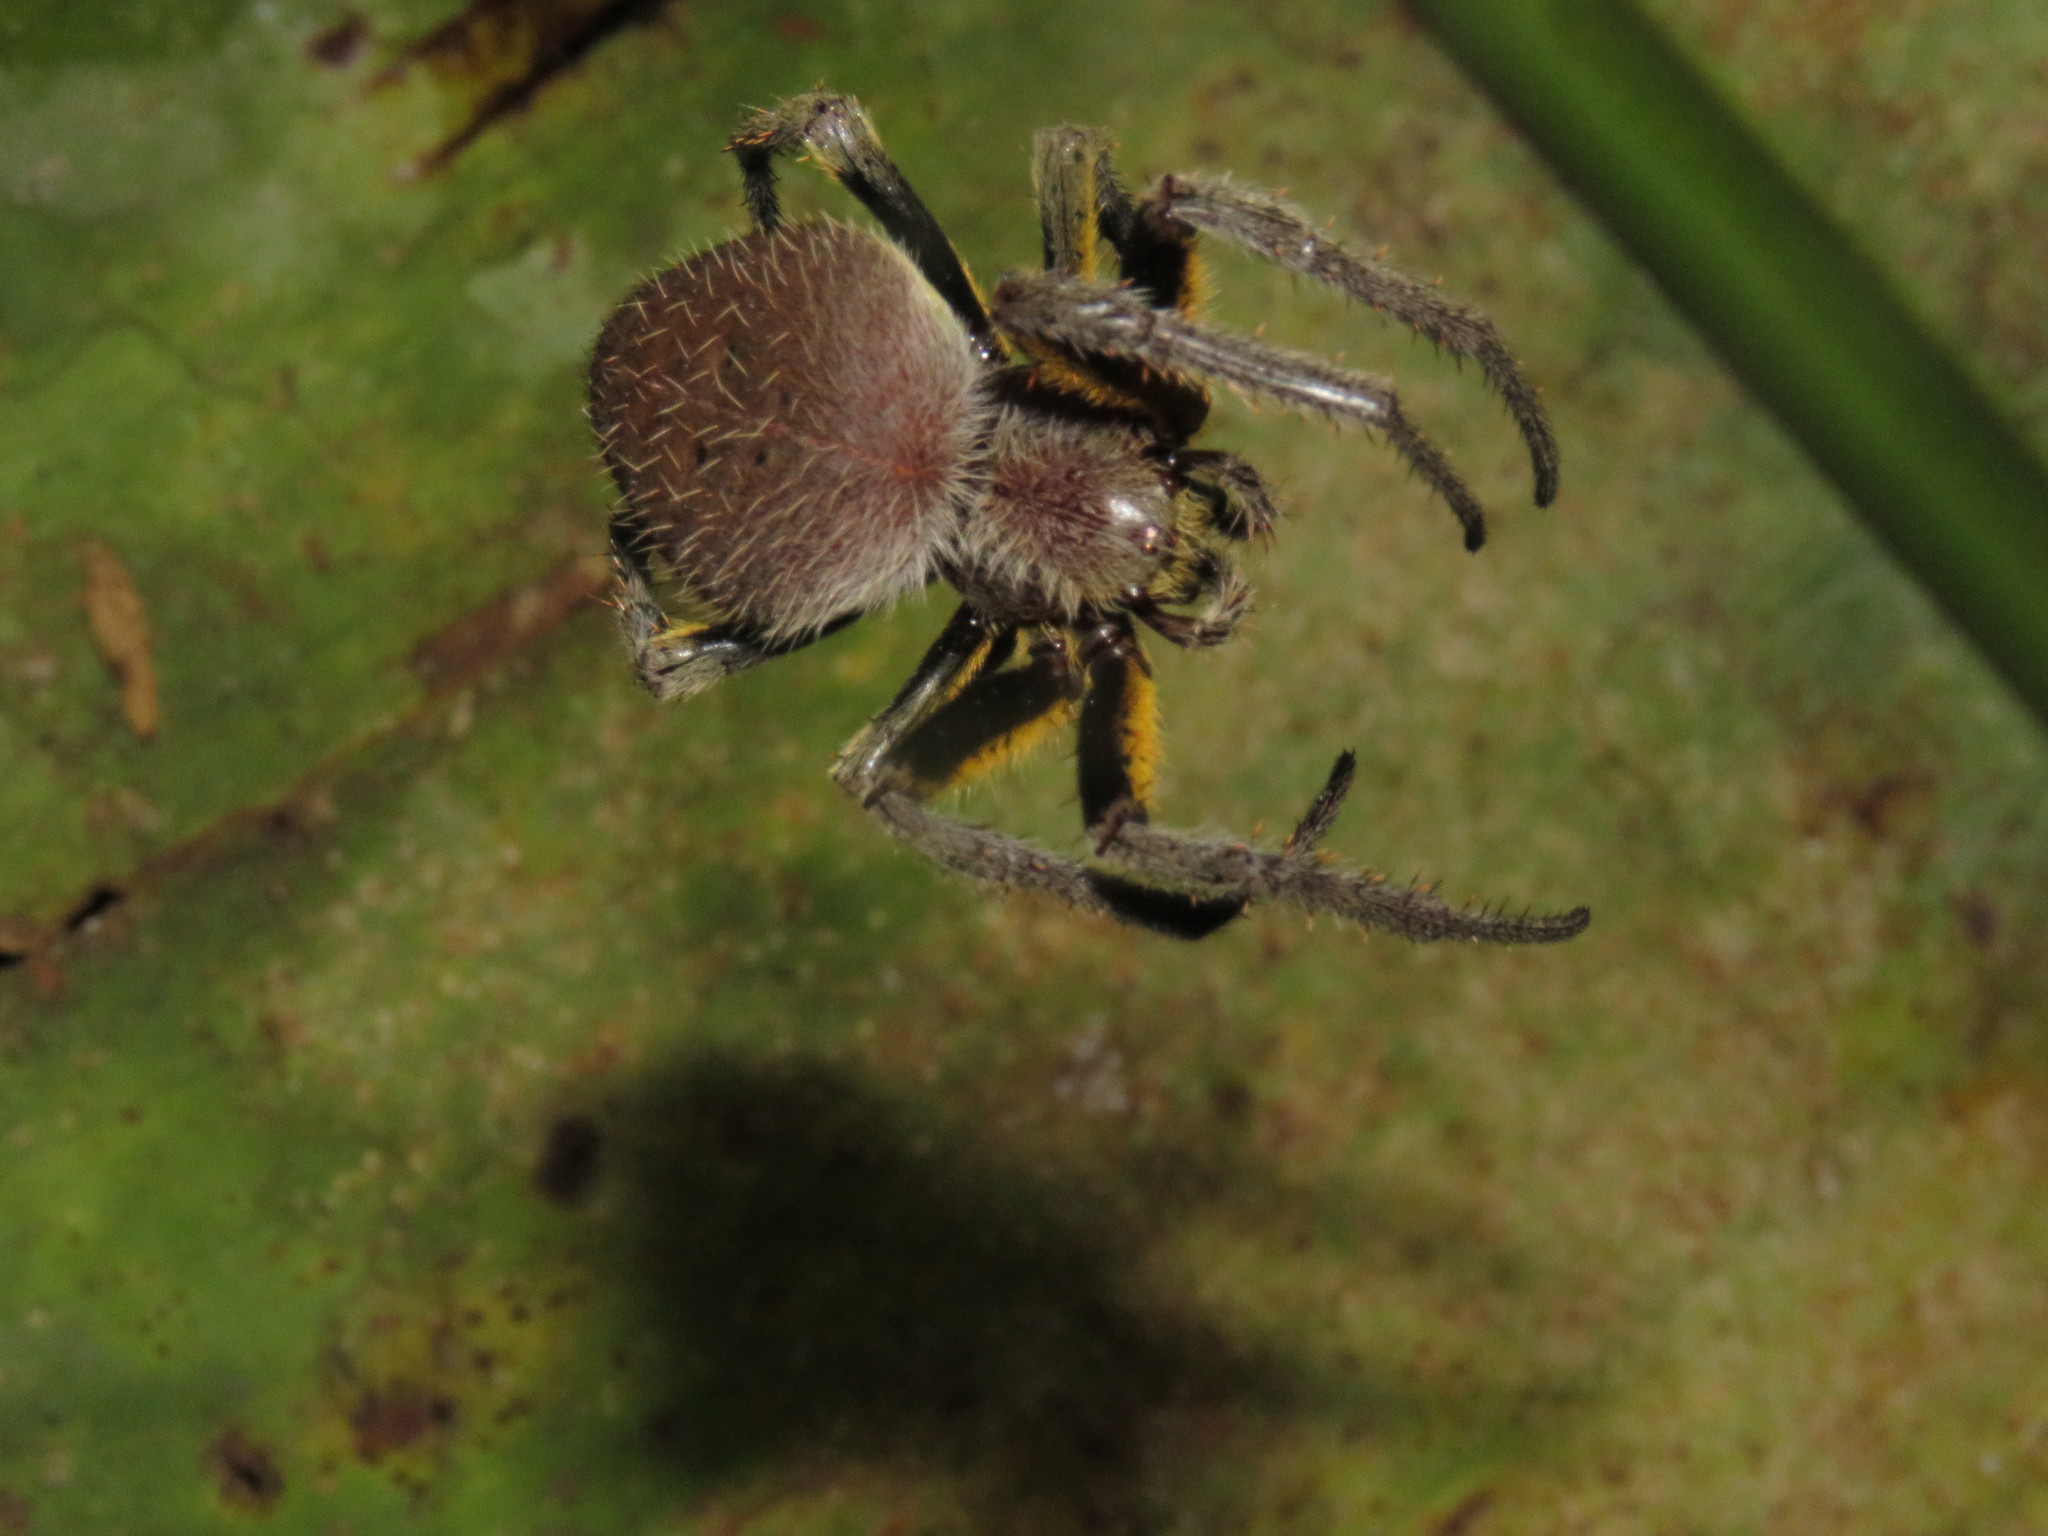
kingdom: Animalia
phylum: Arthropoda
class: Arachnida
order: Araneae
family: Araneidae
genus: Eriophora
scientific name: Eriophora
